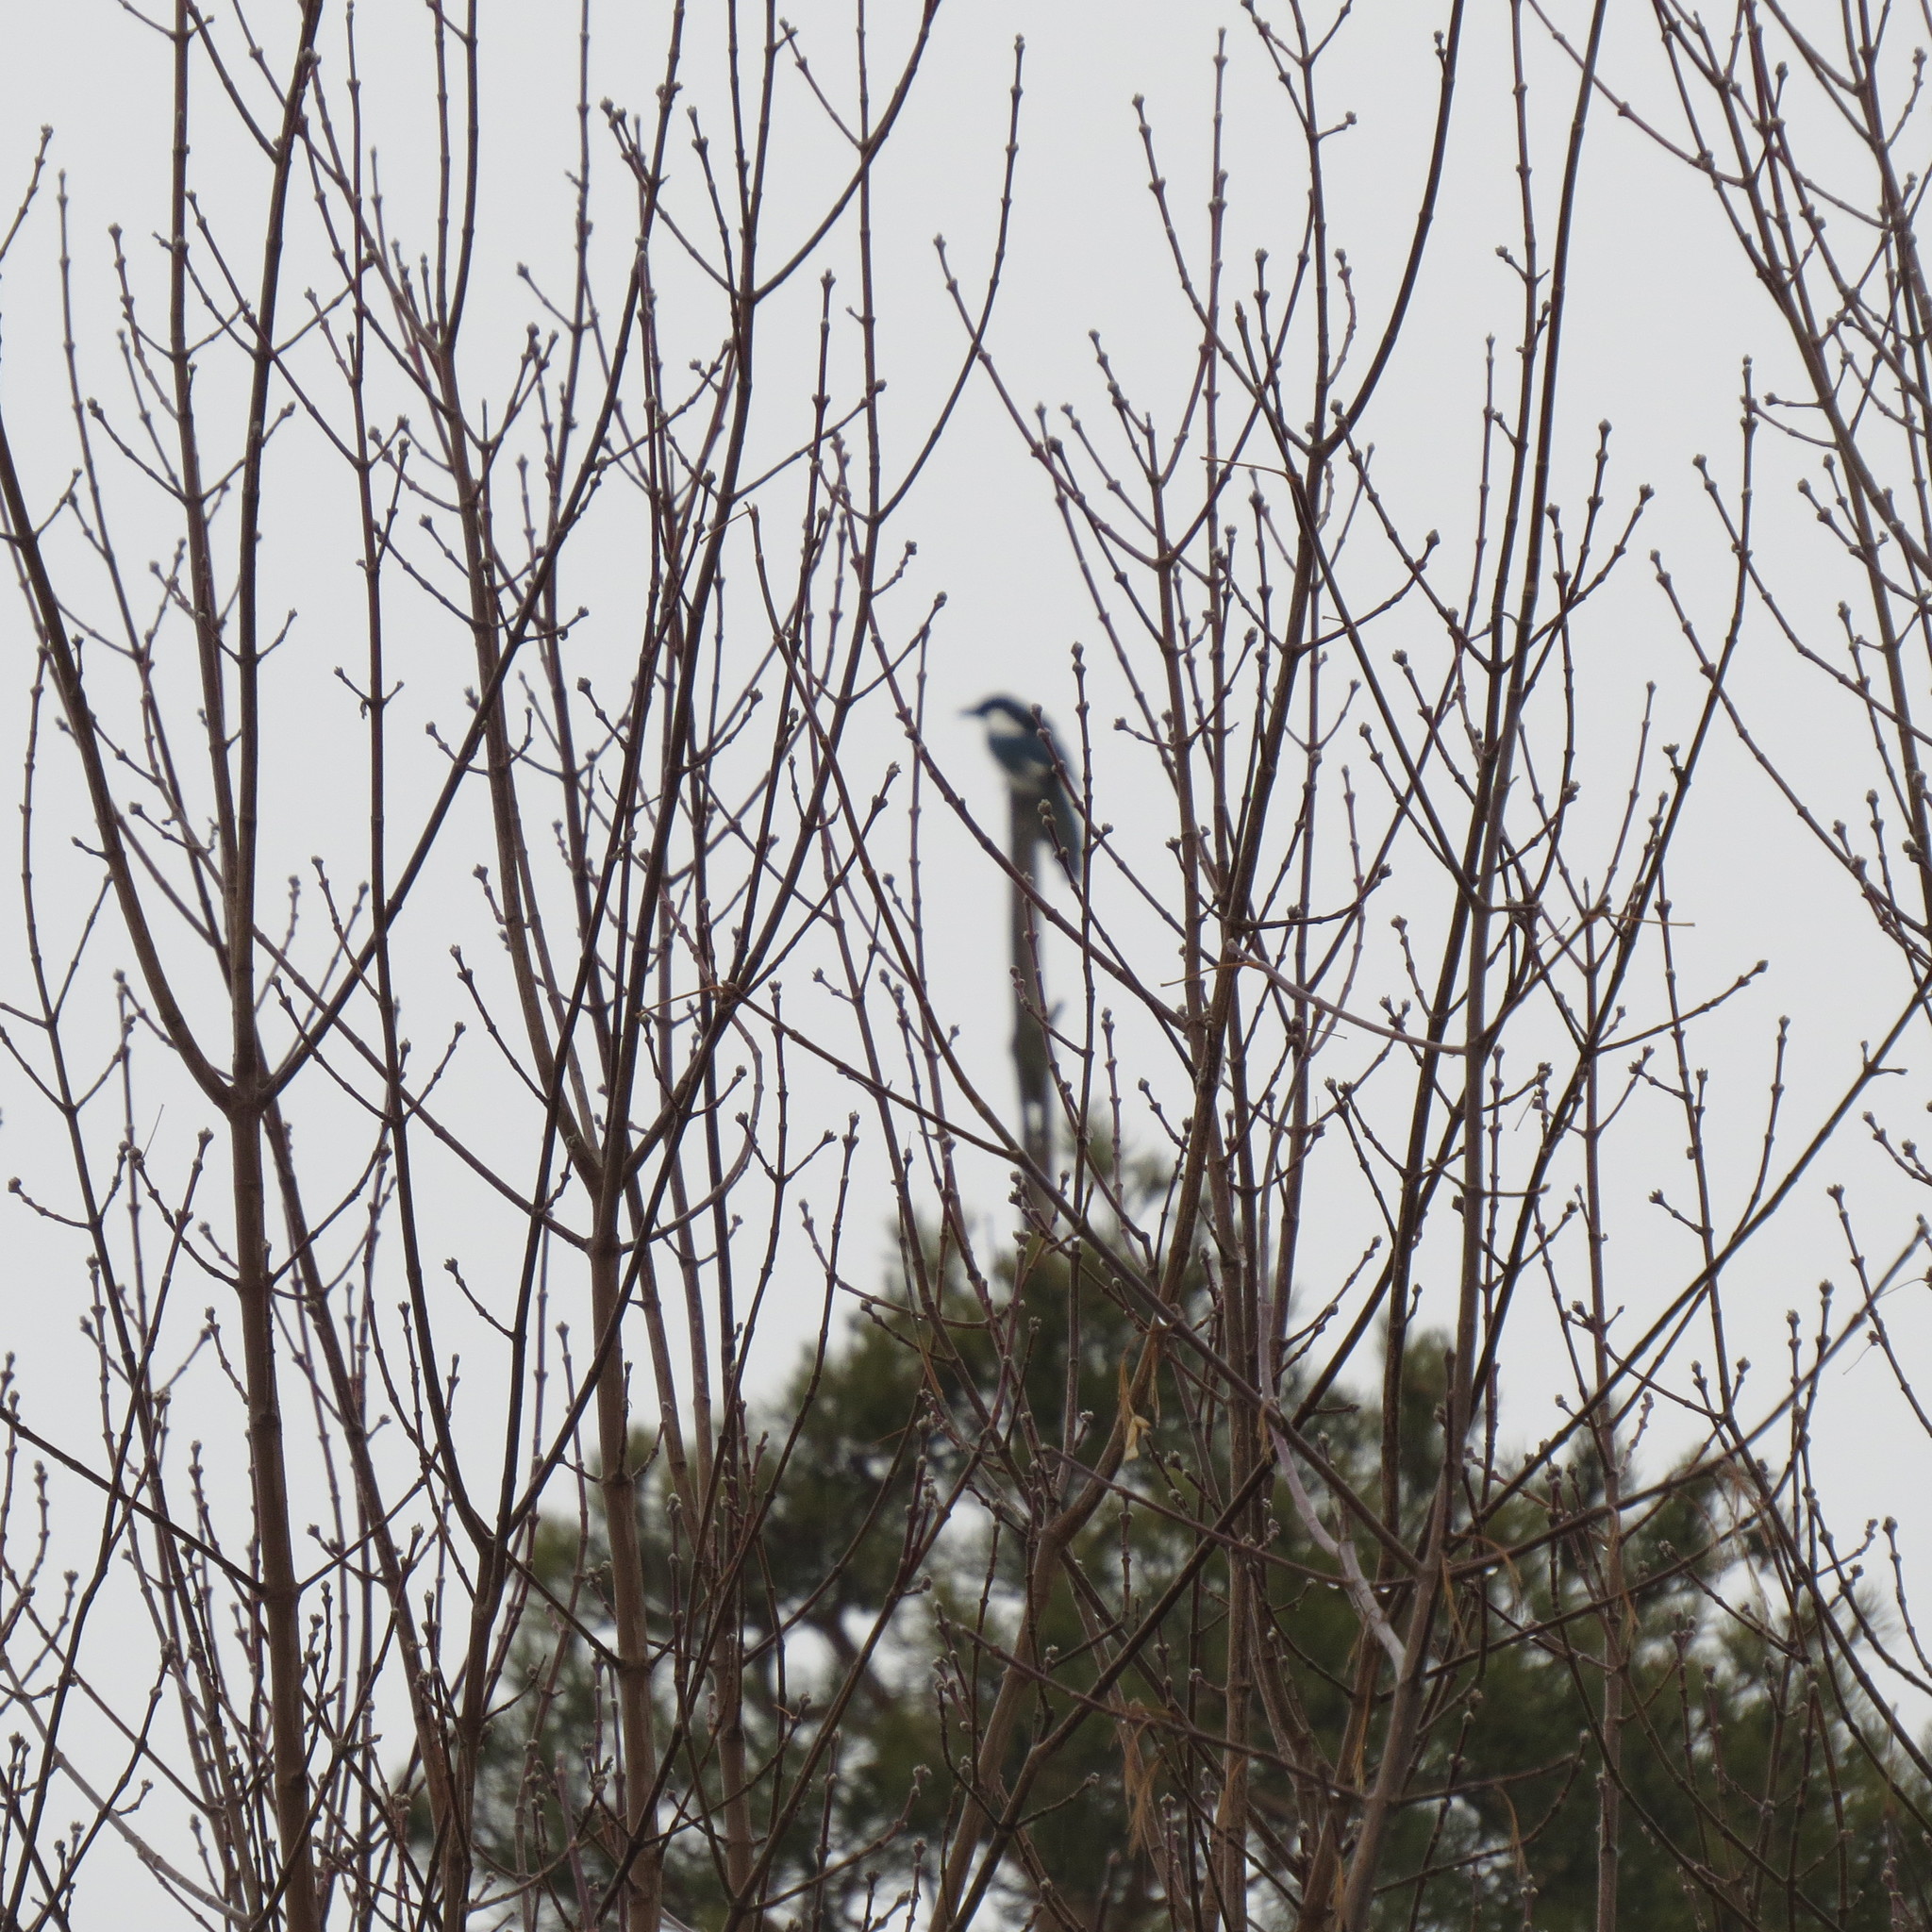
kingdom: Animalia
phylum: Chordata
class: Aves
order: Passeriformes
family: Corvidae
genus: Pica
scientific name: Pica pica
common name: Eurasian magpie
